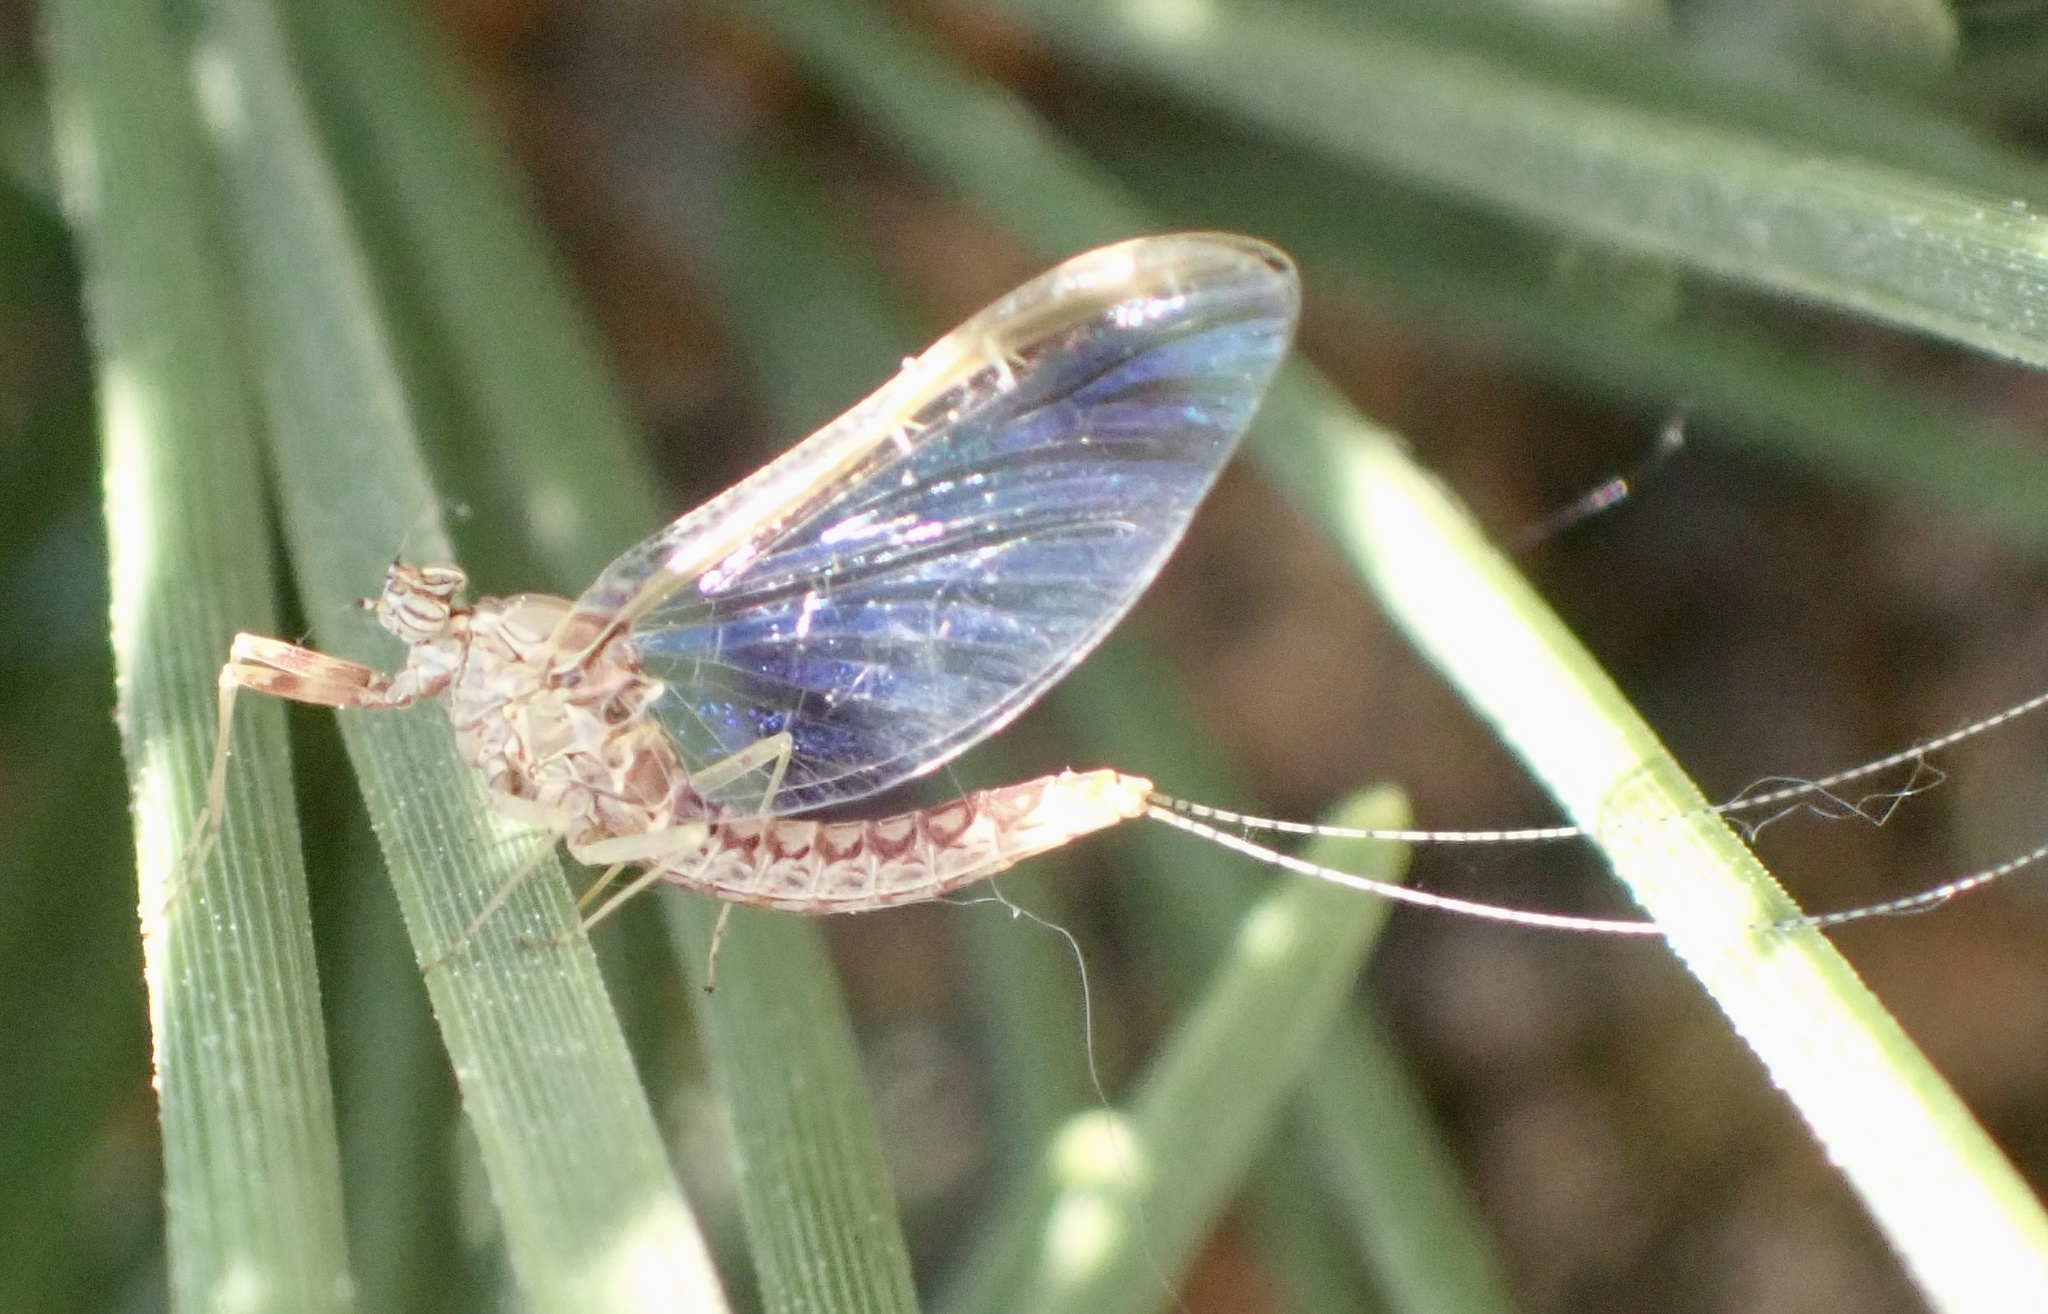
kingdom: Animalia
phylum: Arthropoda
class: Insecta
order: Ephemeroptera
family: Baetidae
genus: Cloeon
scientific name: Cloeon dipterum
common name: Pond olive
